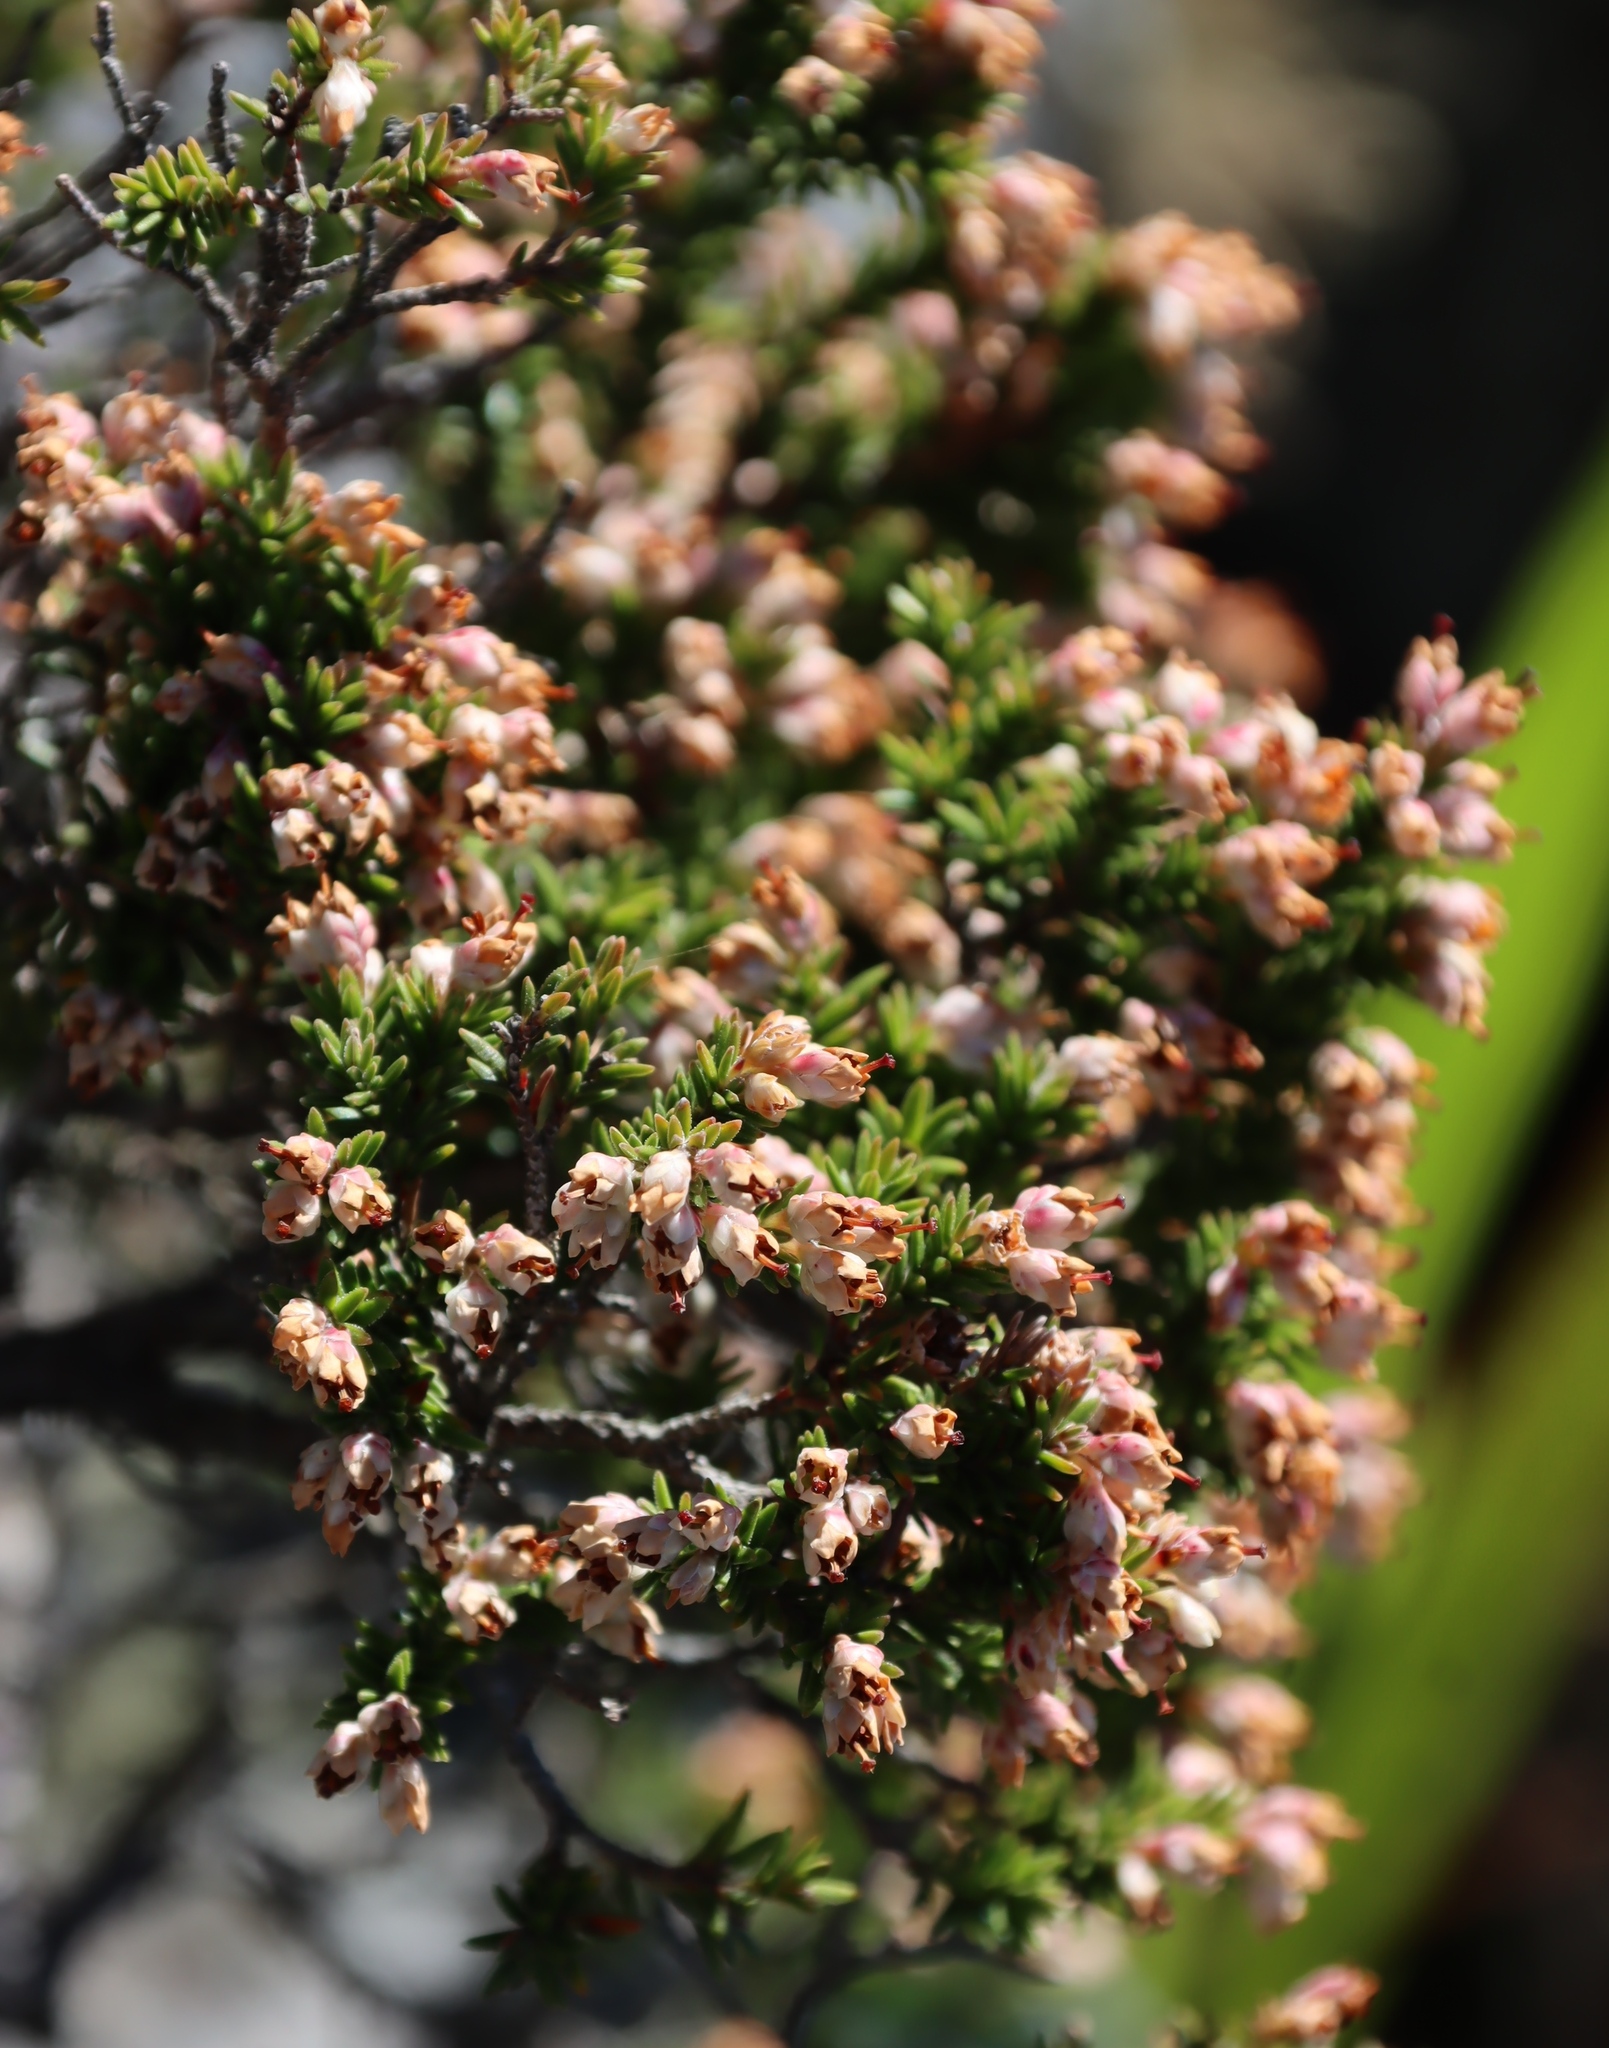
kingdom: Plantae
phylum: Tracheophyta
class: Magnoliopsida
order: Ericales
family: Ericaceae
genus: Erica
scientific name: Erica diosmifolia
